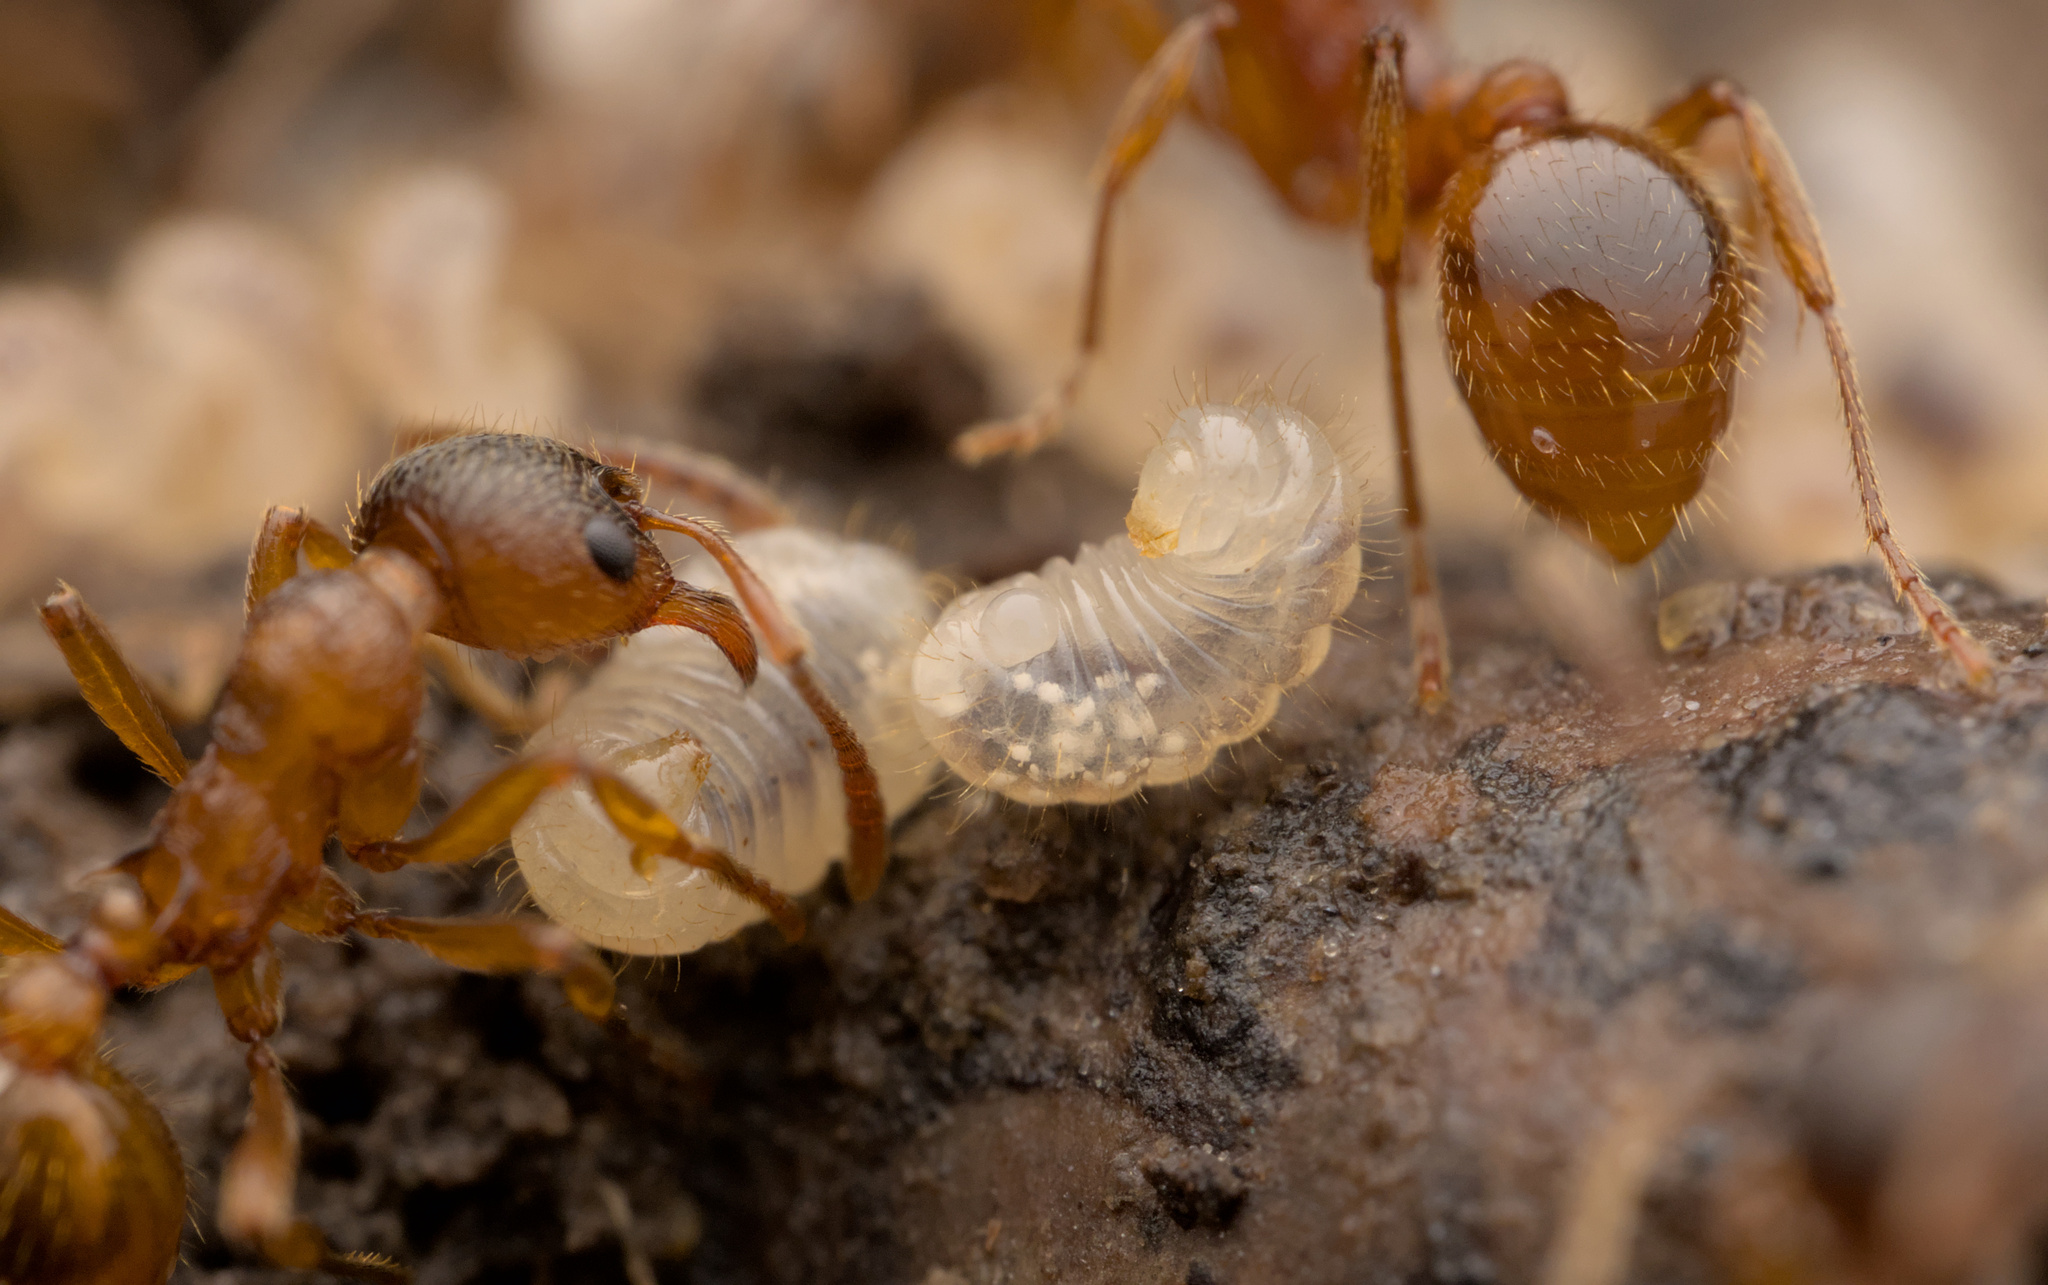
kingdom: Animalia
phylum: Arthropoda
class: Insecta
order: Hymenoptera
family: Formicidae
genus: Myrmica
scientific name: Myrmica rubra
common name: European fire ant
